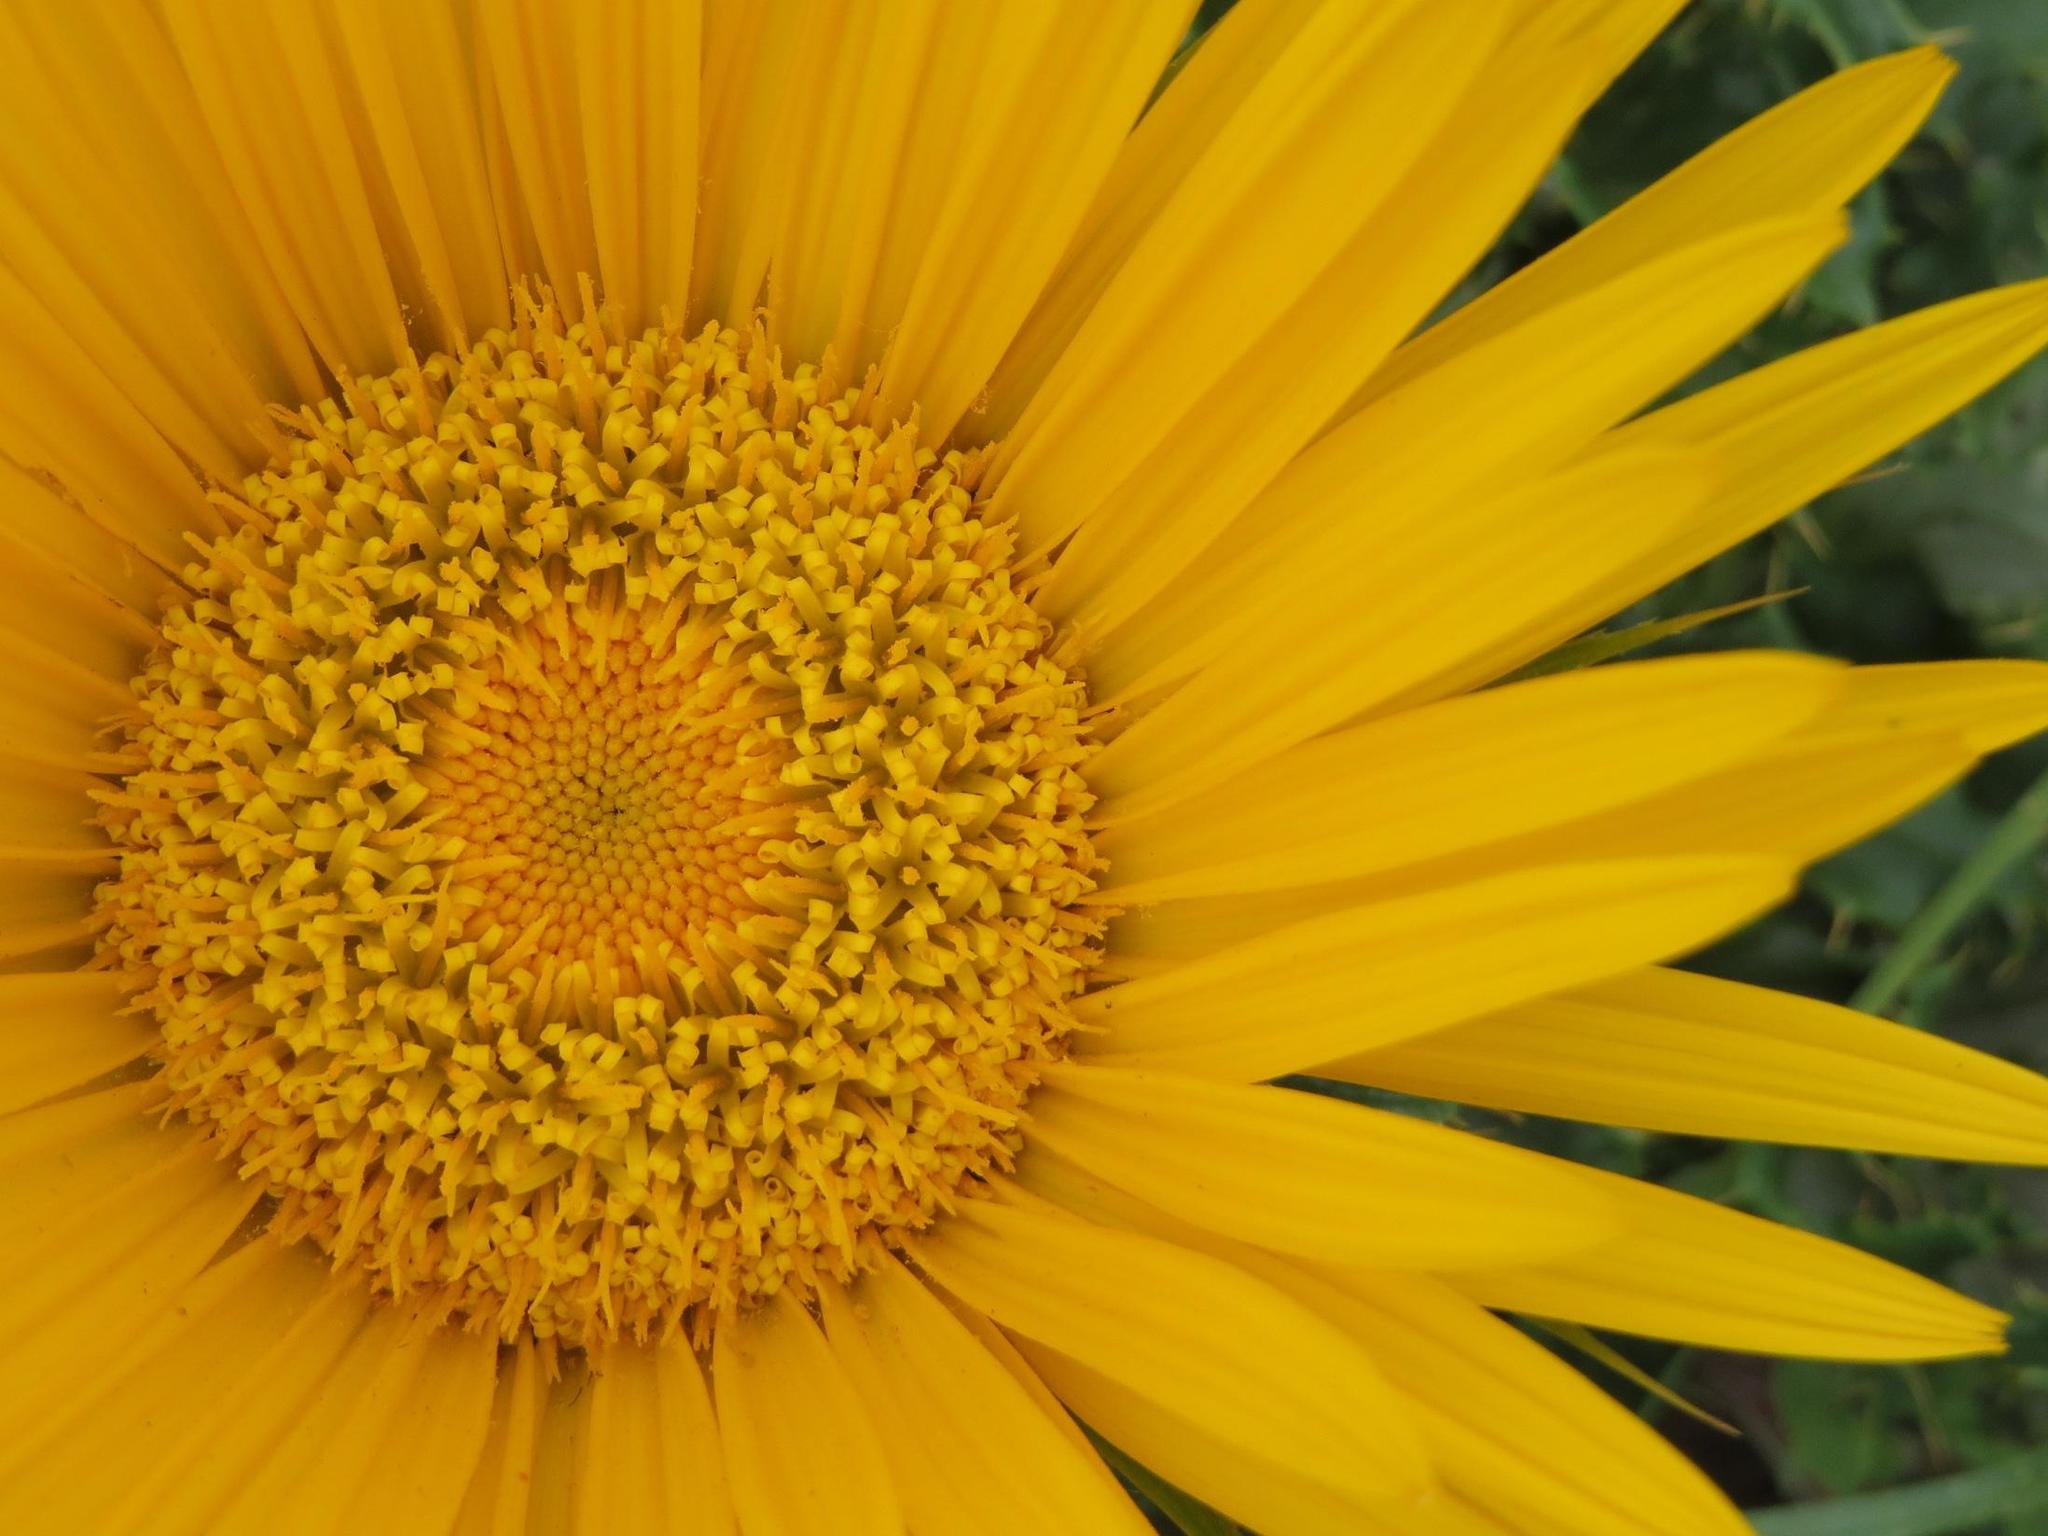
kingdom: Plantae
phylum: Tracheophyta
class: Magnoliopsida
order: Asterales
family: Asteraceae
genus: Berkheya
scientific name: Berkheya barbata
